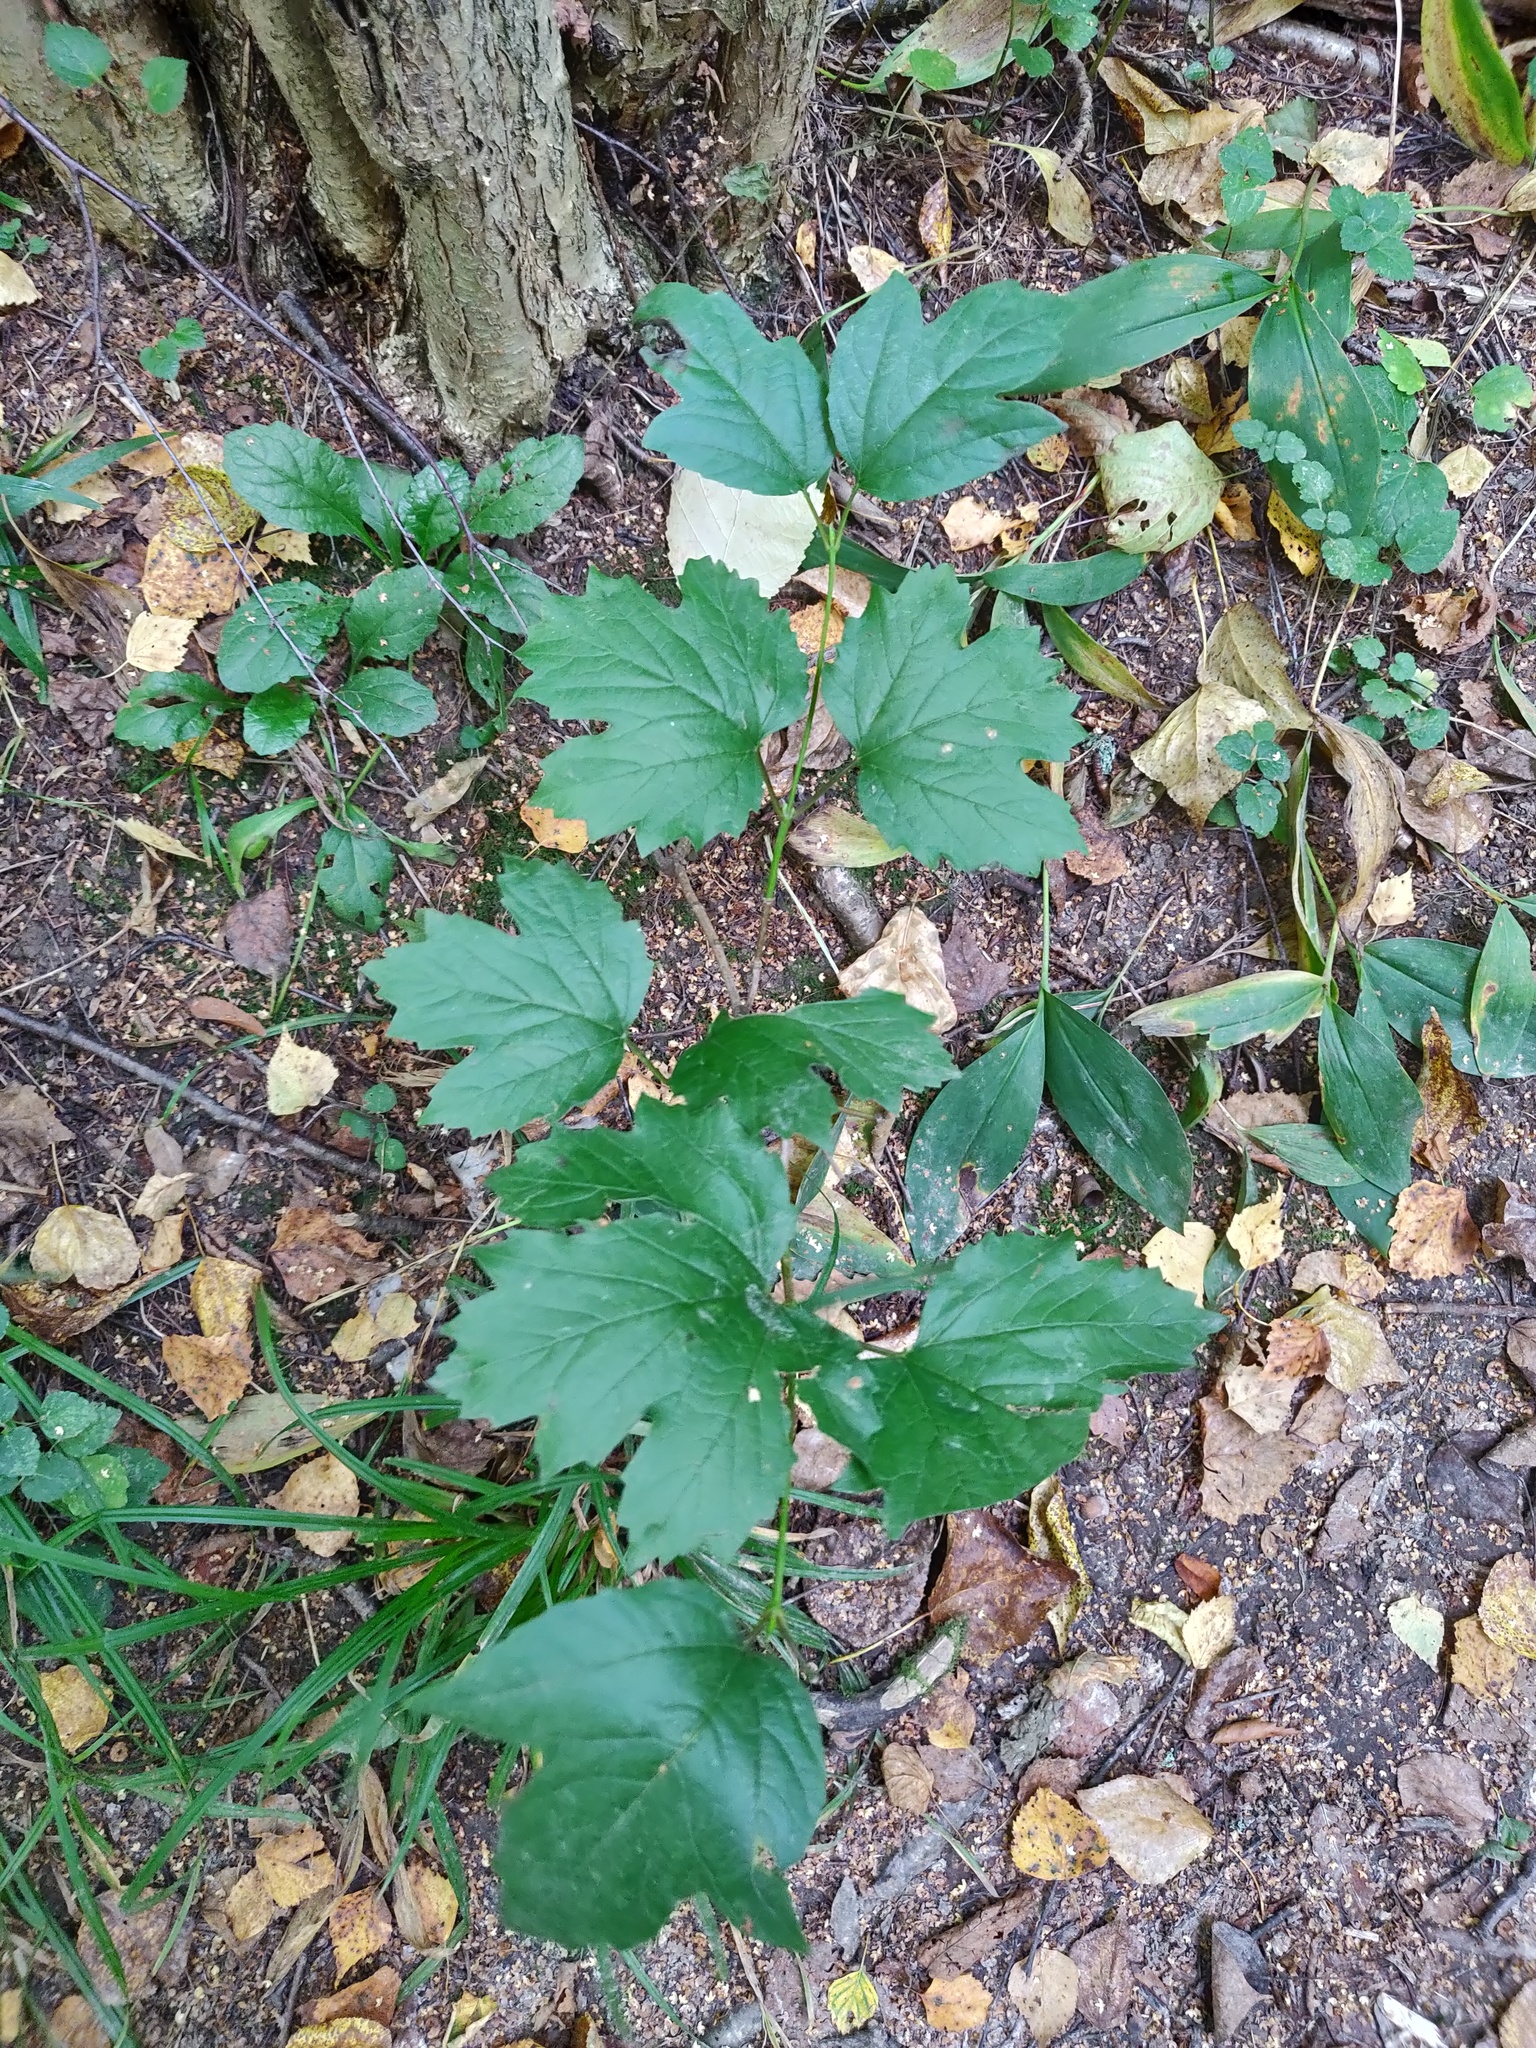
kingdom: Plantae
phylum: Tracheophyta
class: Magnoliopsida
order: Dipsacales
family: Viburnaceae
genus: Viburnum
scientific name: Viburnum opulus
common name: Guelder-rose
